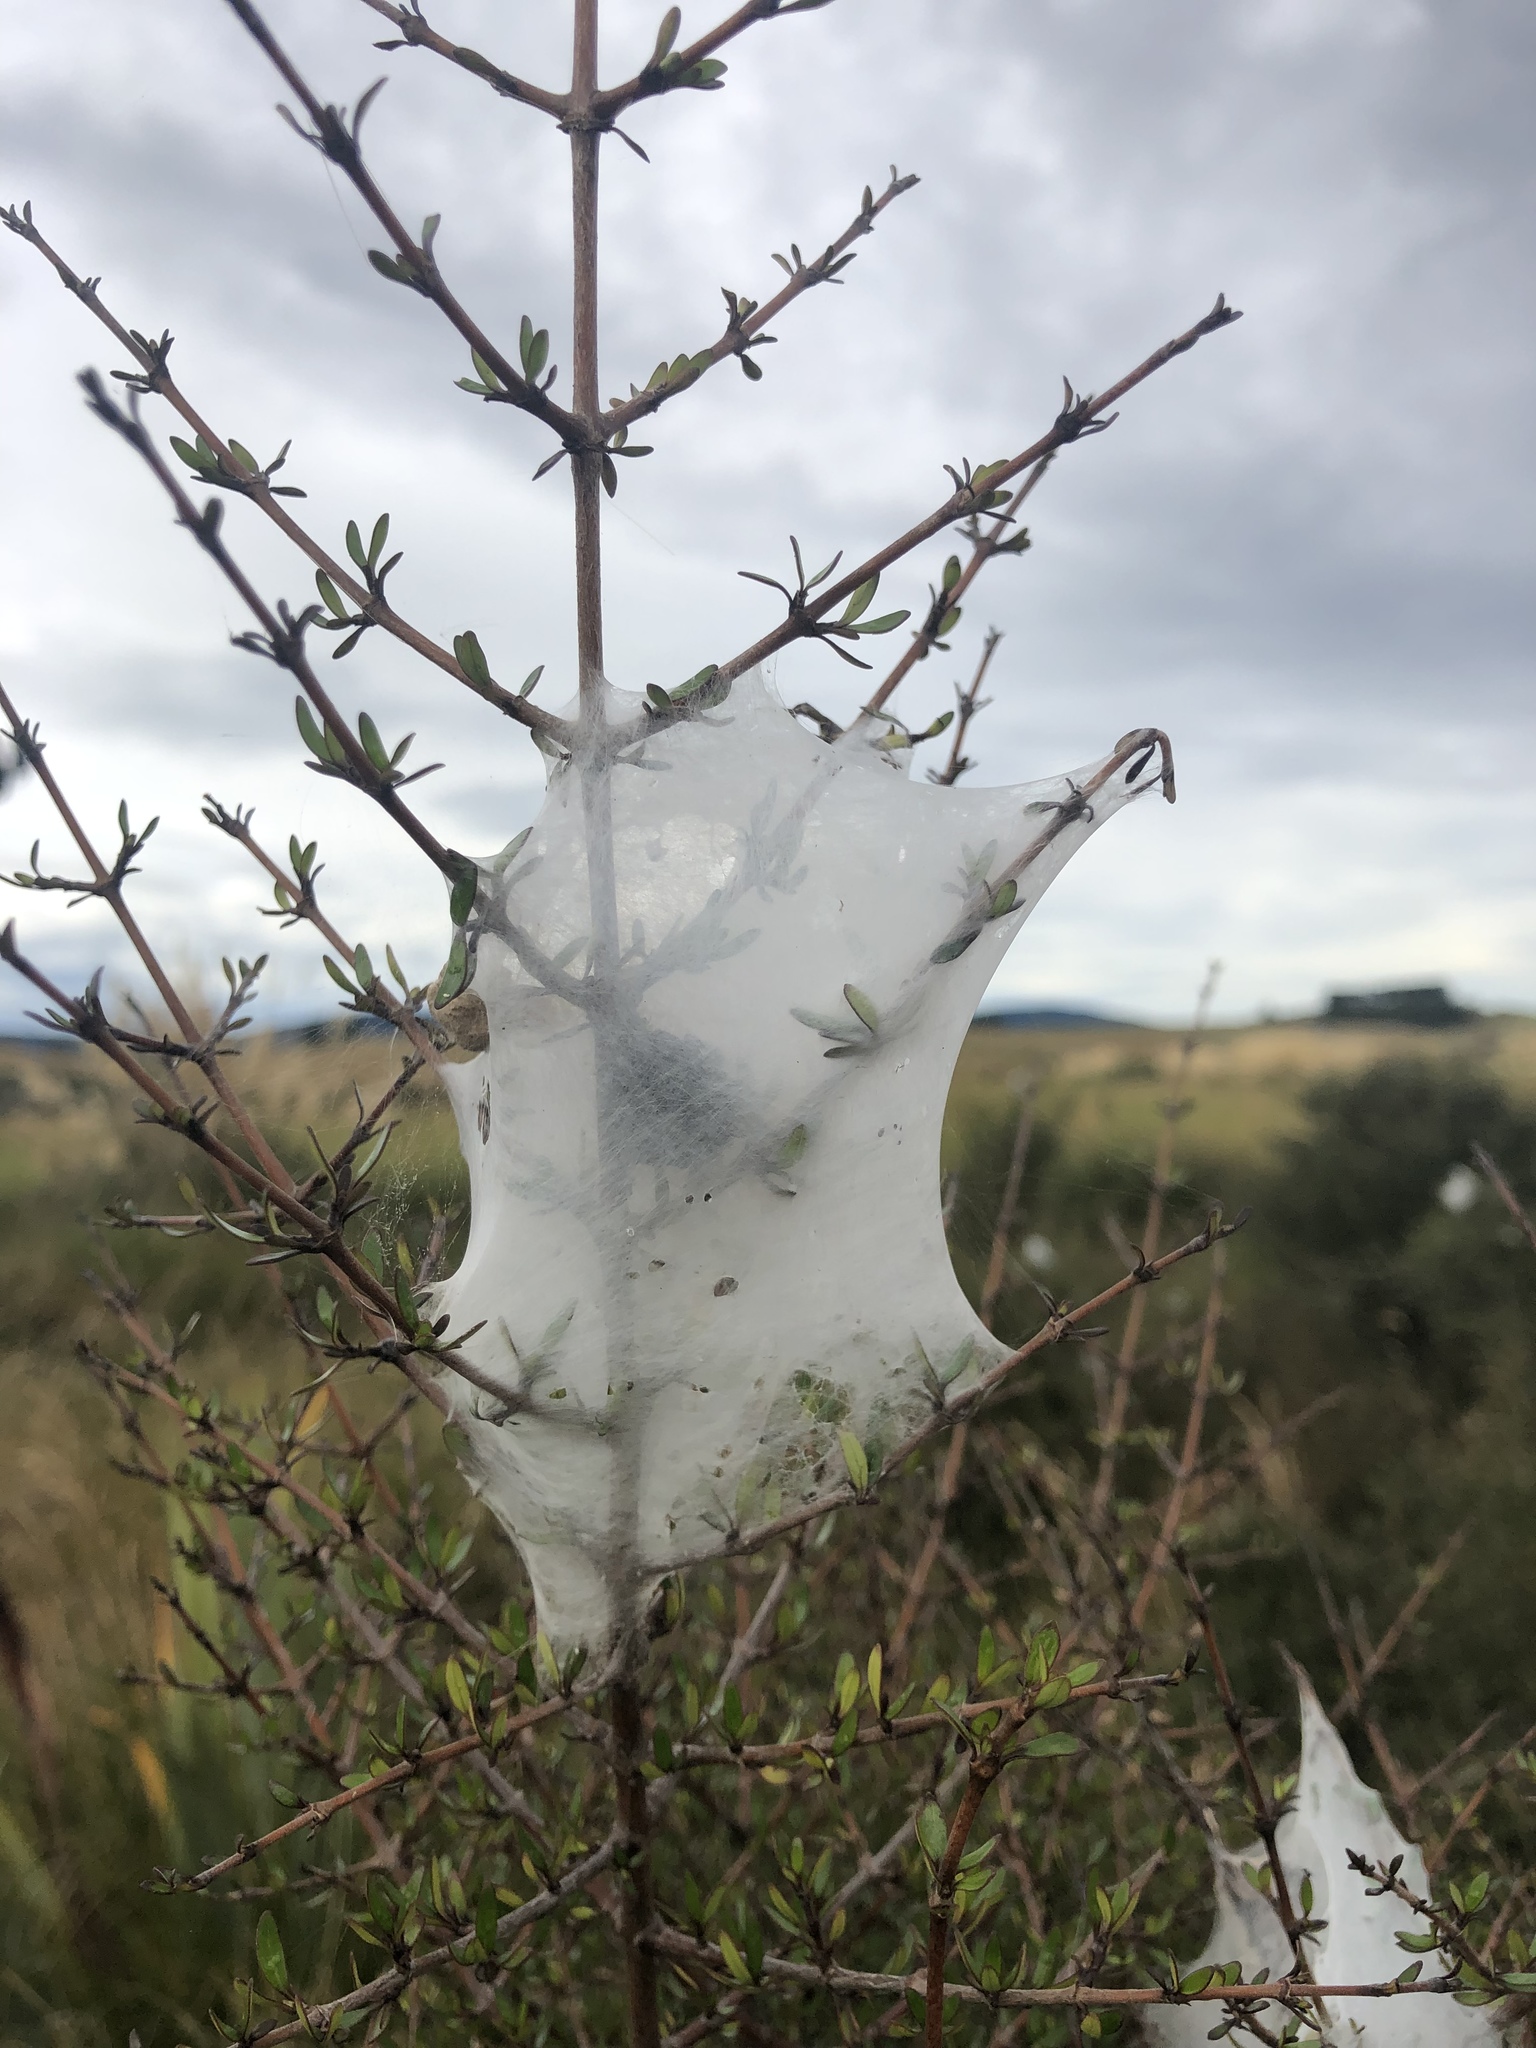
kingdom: Animalia
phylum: Arthropoda
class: Arachnida
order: Araneae
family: Pisauridae
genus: Dolomedes
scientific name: Dolomedes minor
